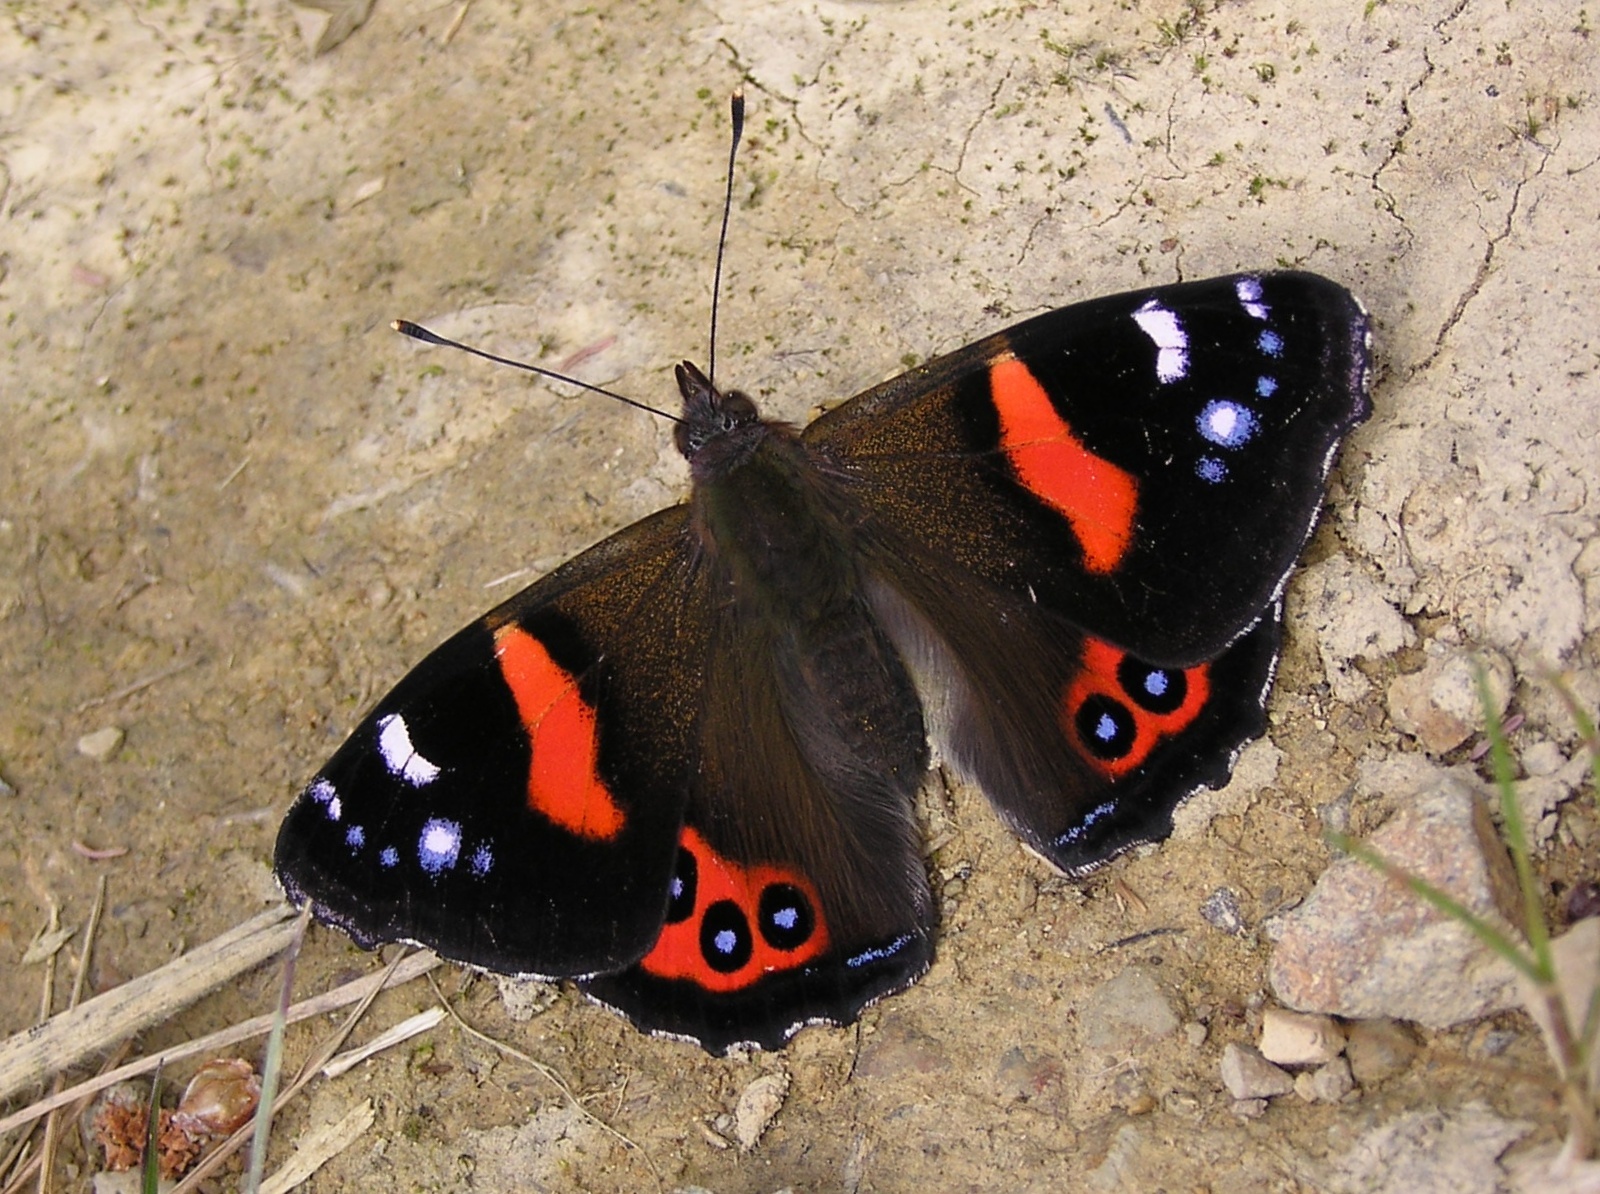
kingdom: Animalia
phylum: Arthropoda
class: Insecta
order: Lepidoptera
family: Nymphalidae
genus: Vanessa
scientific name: Vanessa gonerilla
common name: New zealand red admiral
